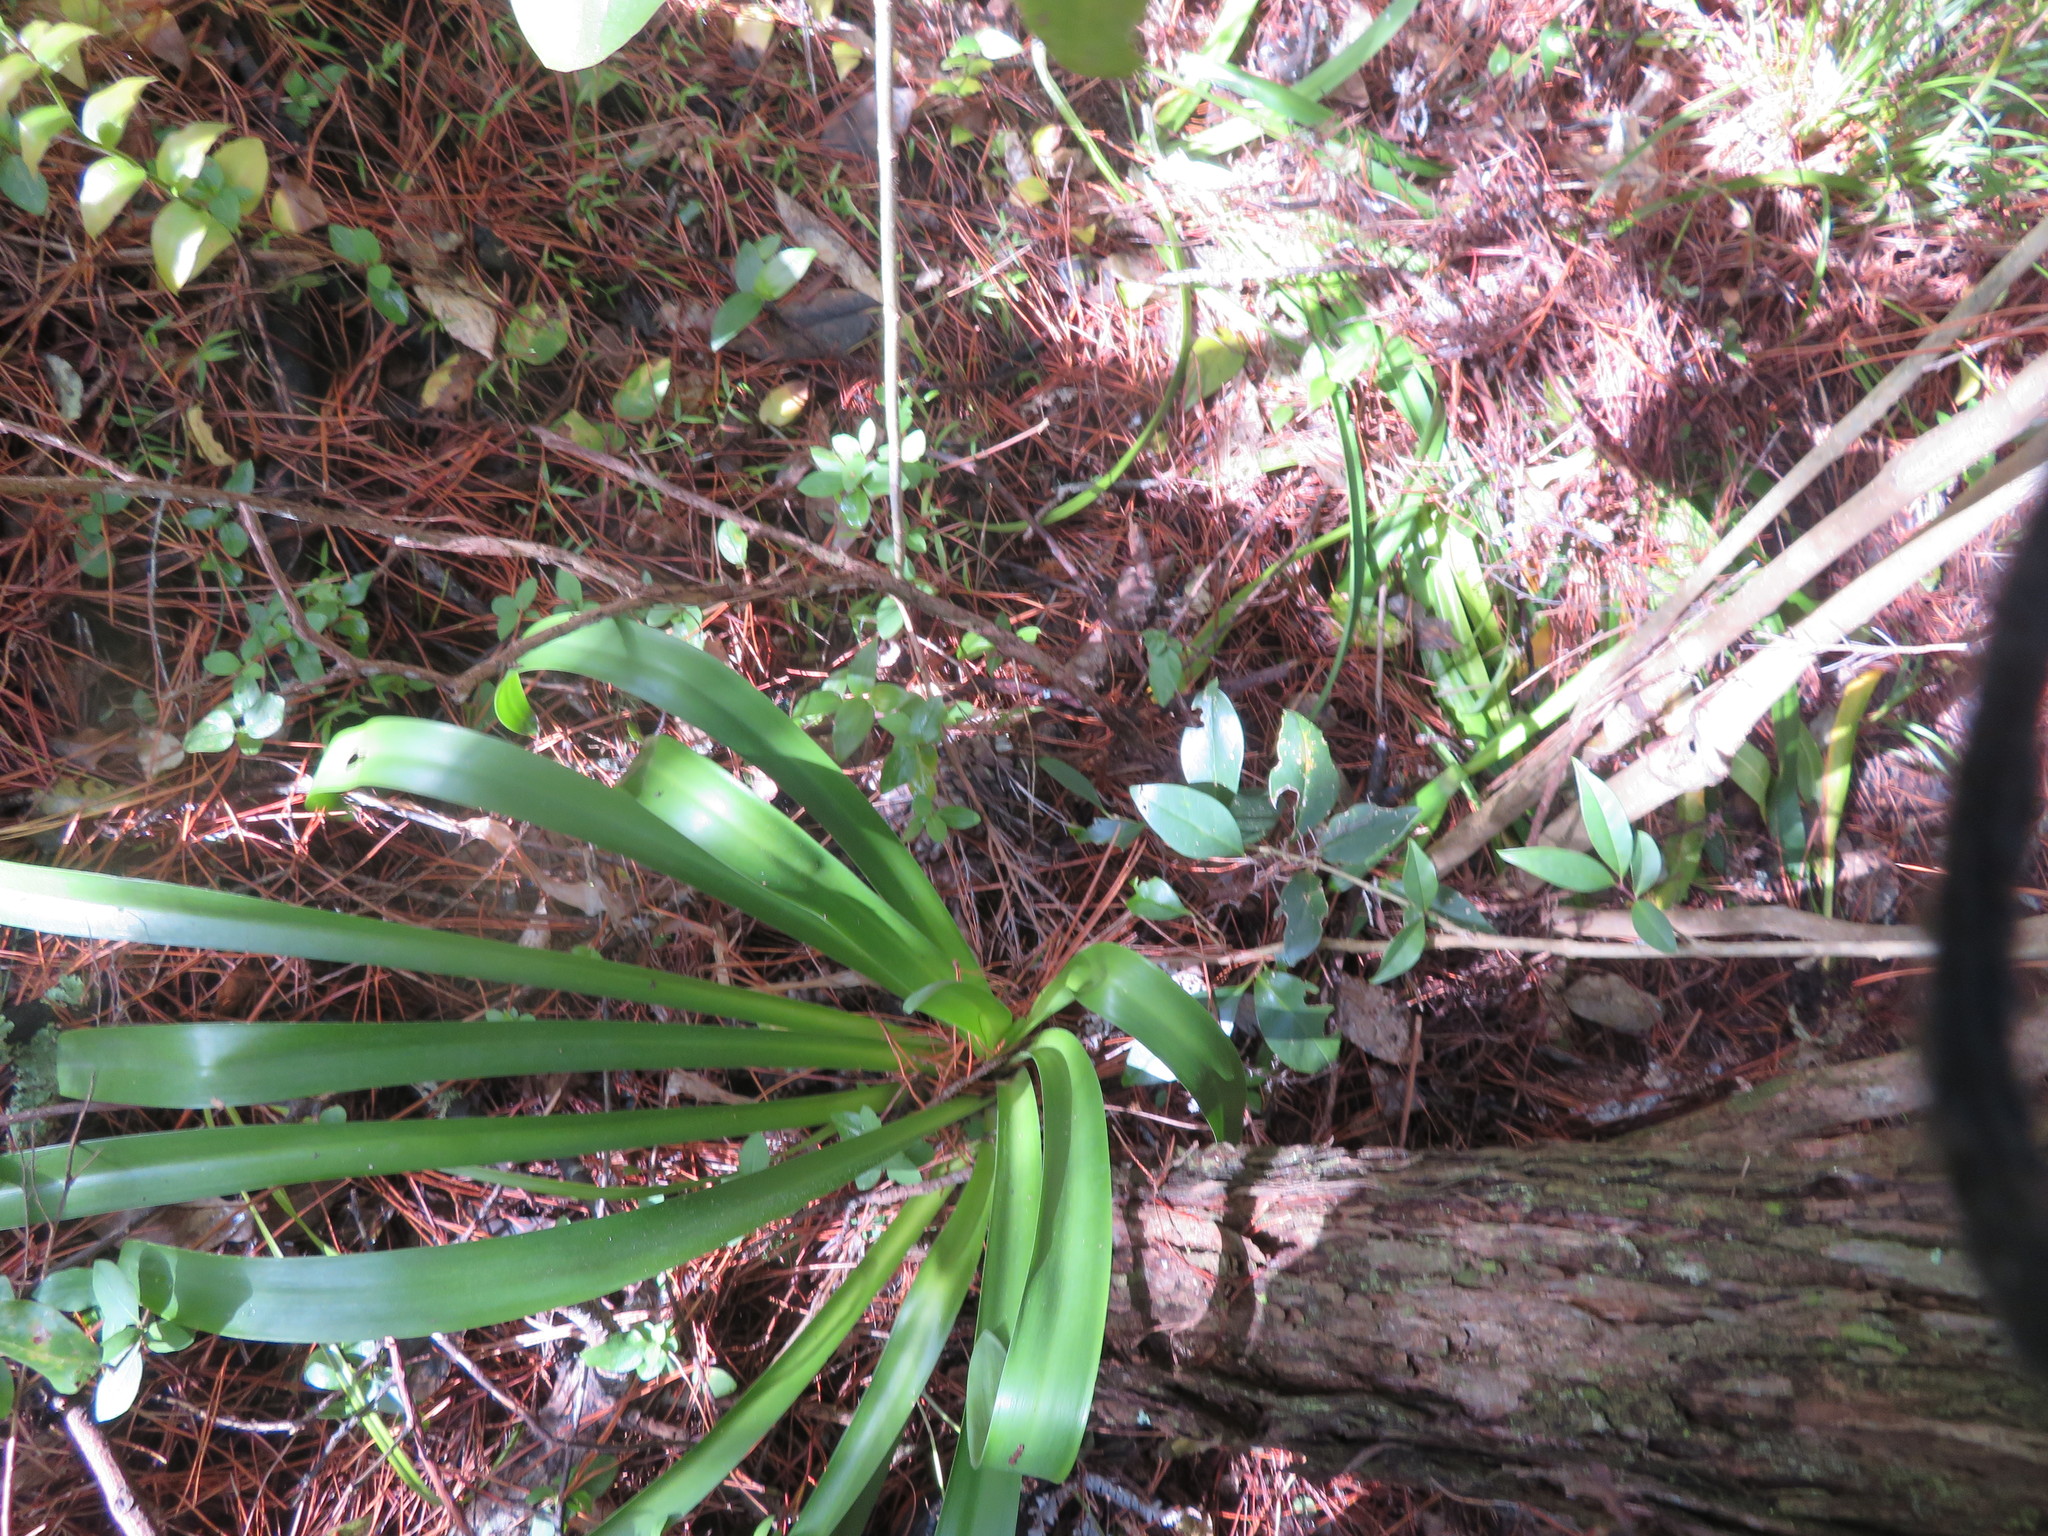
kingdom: Plantae
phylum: Tracheophyta
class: Liliopsida
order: Asparagales
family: Amaryllidaceae
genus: Agapanthus
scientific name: Agapanthus praecox
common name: African-lily
